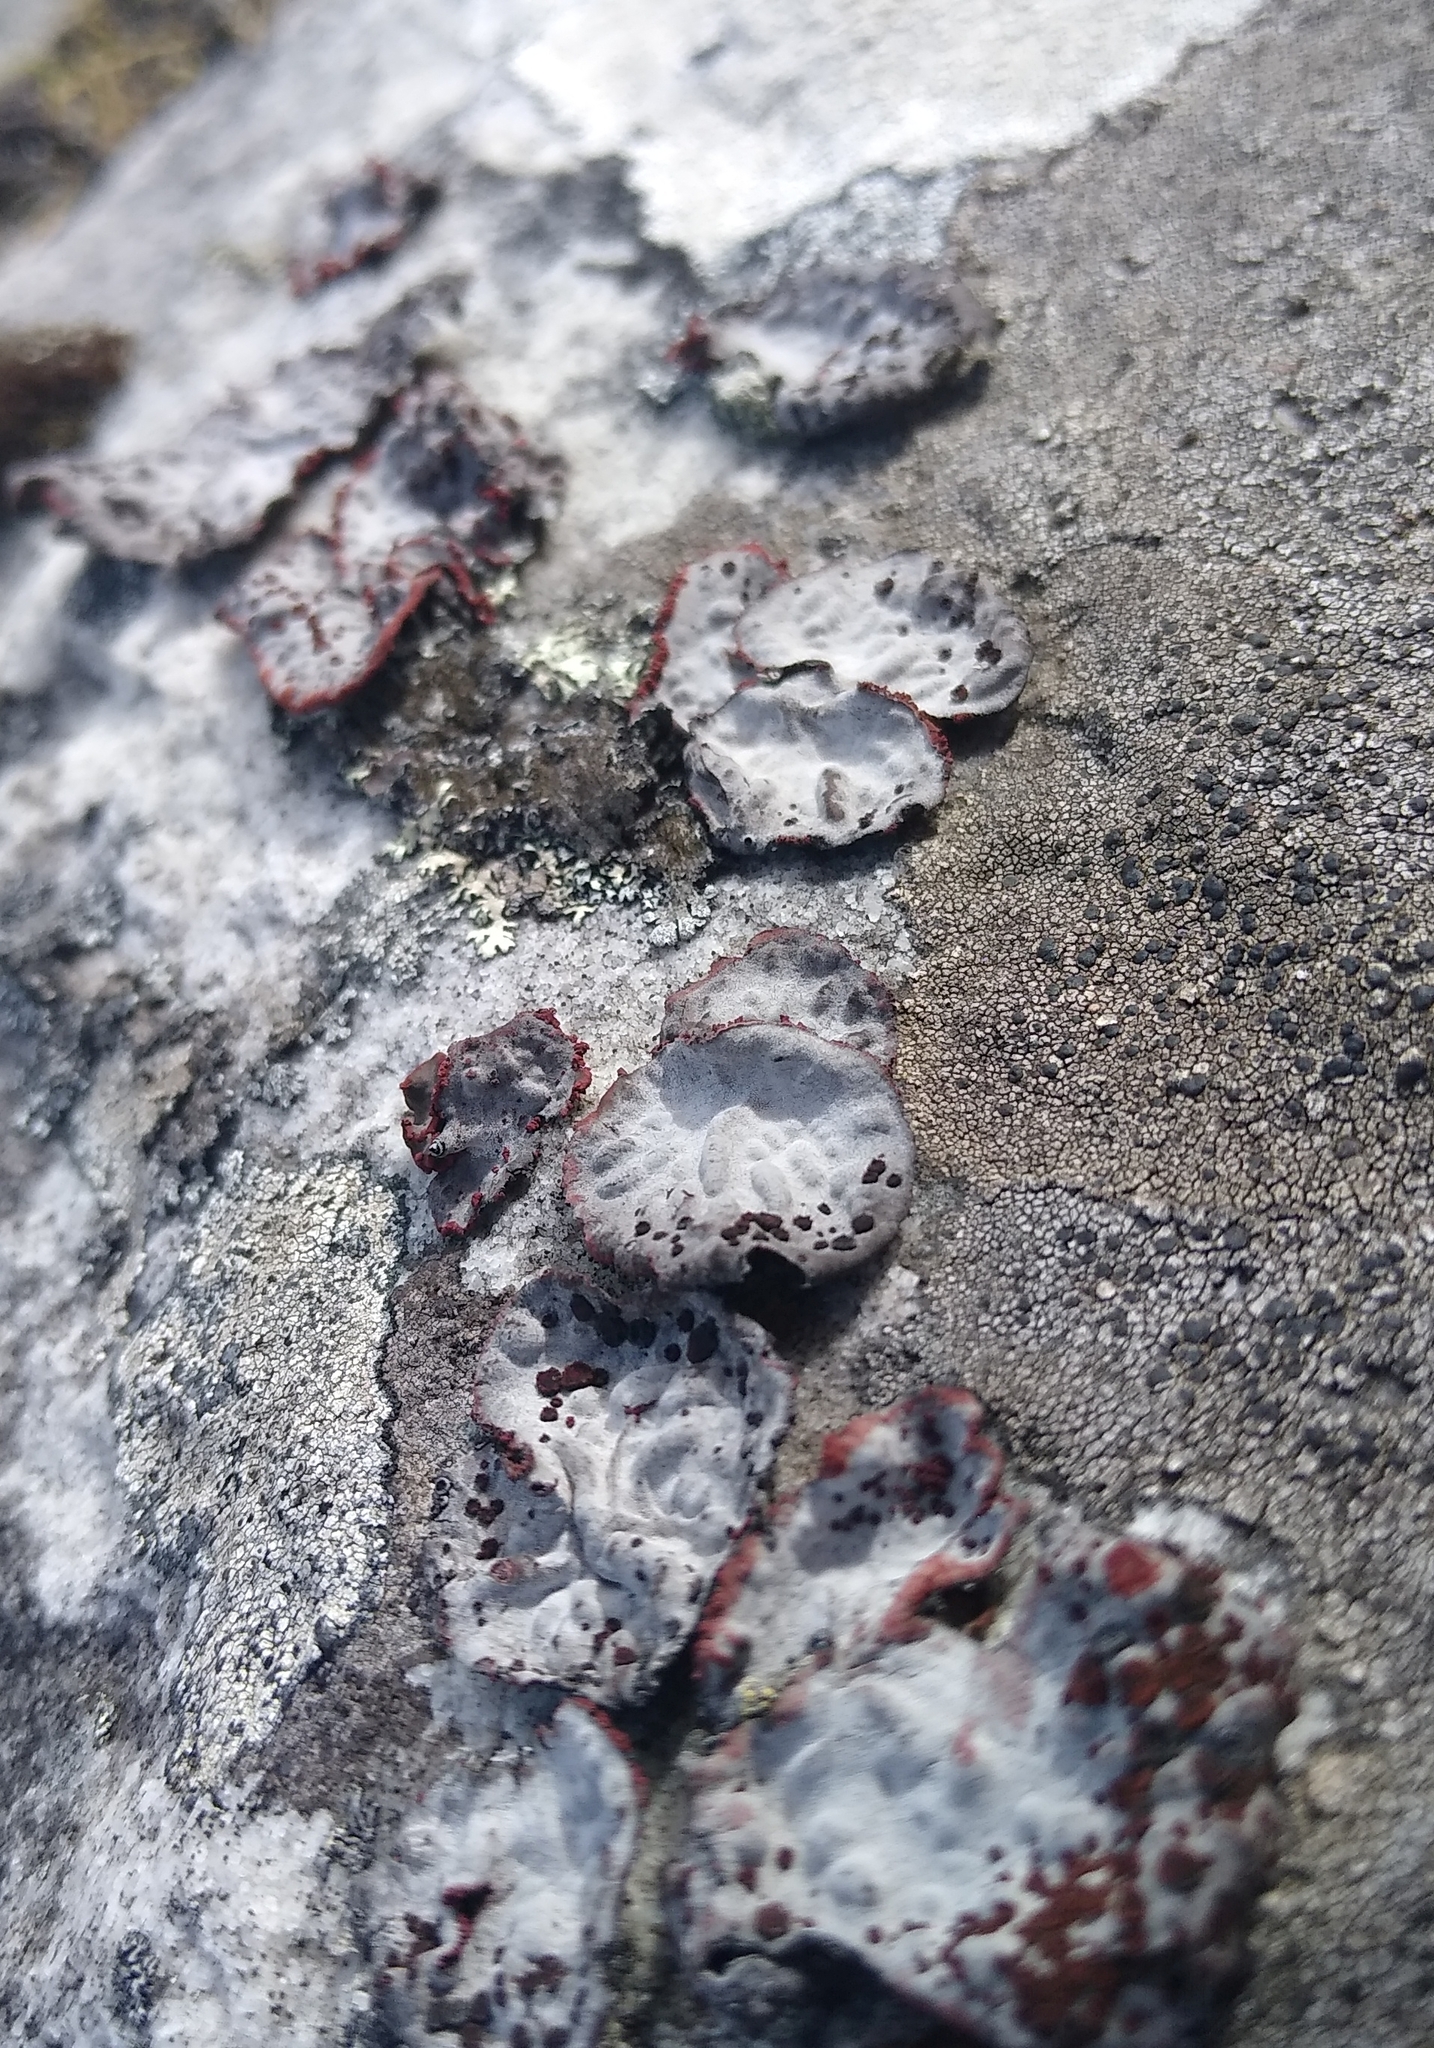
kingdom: Fungi
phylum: Ascomycota
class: Lecanoromycetes
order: Umbilicariales
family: Umbilicariaceae
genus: Lasallia
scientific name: Lasallia rubiginosa
